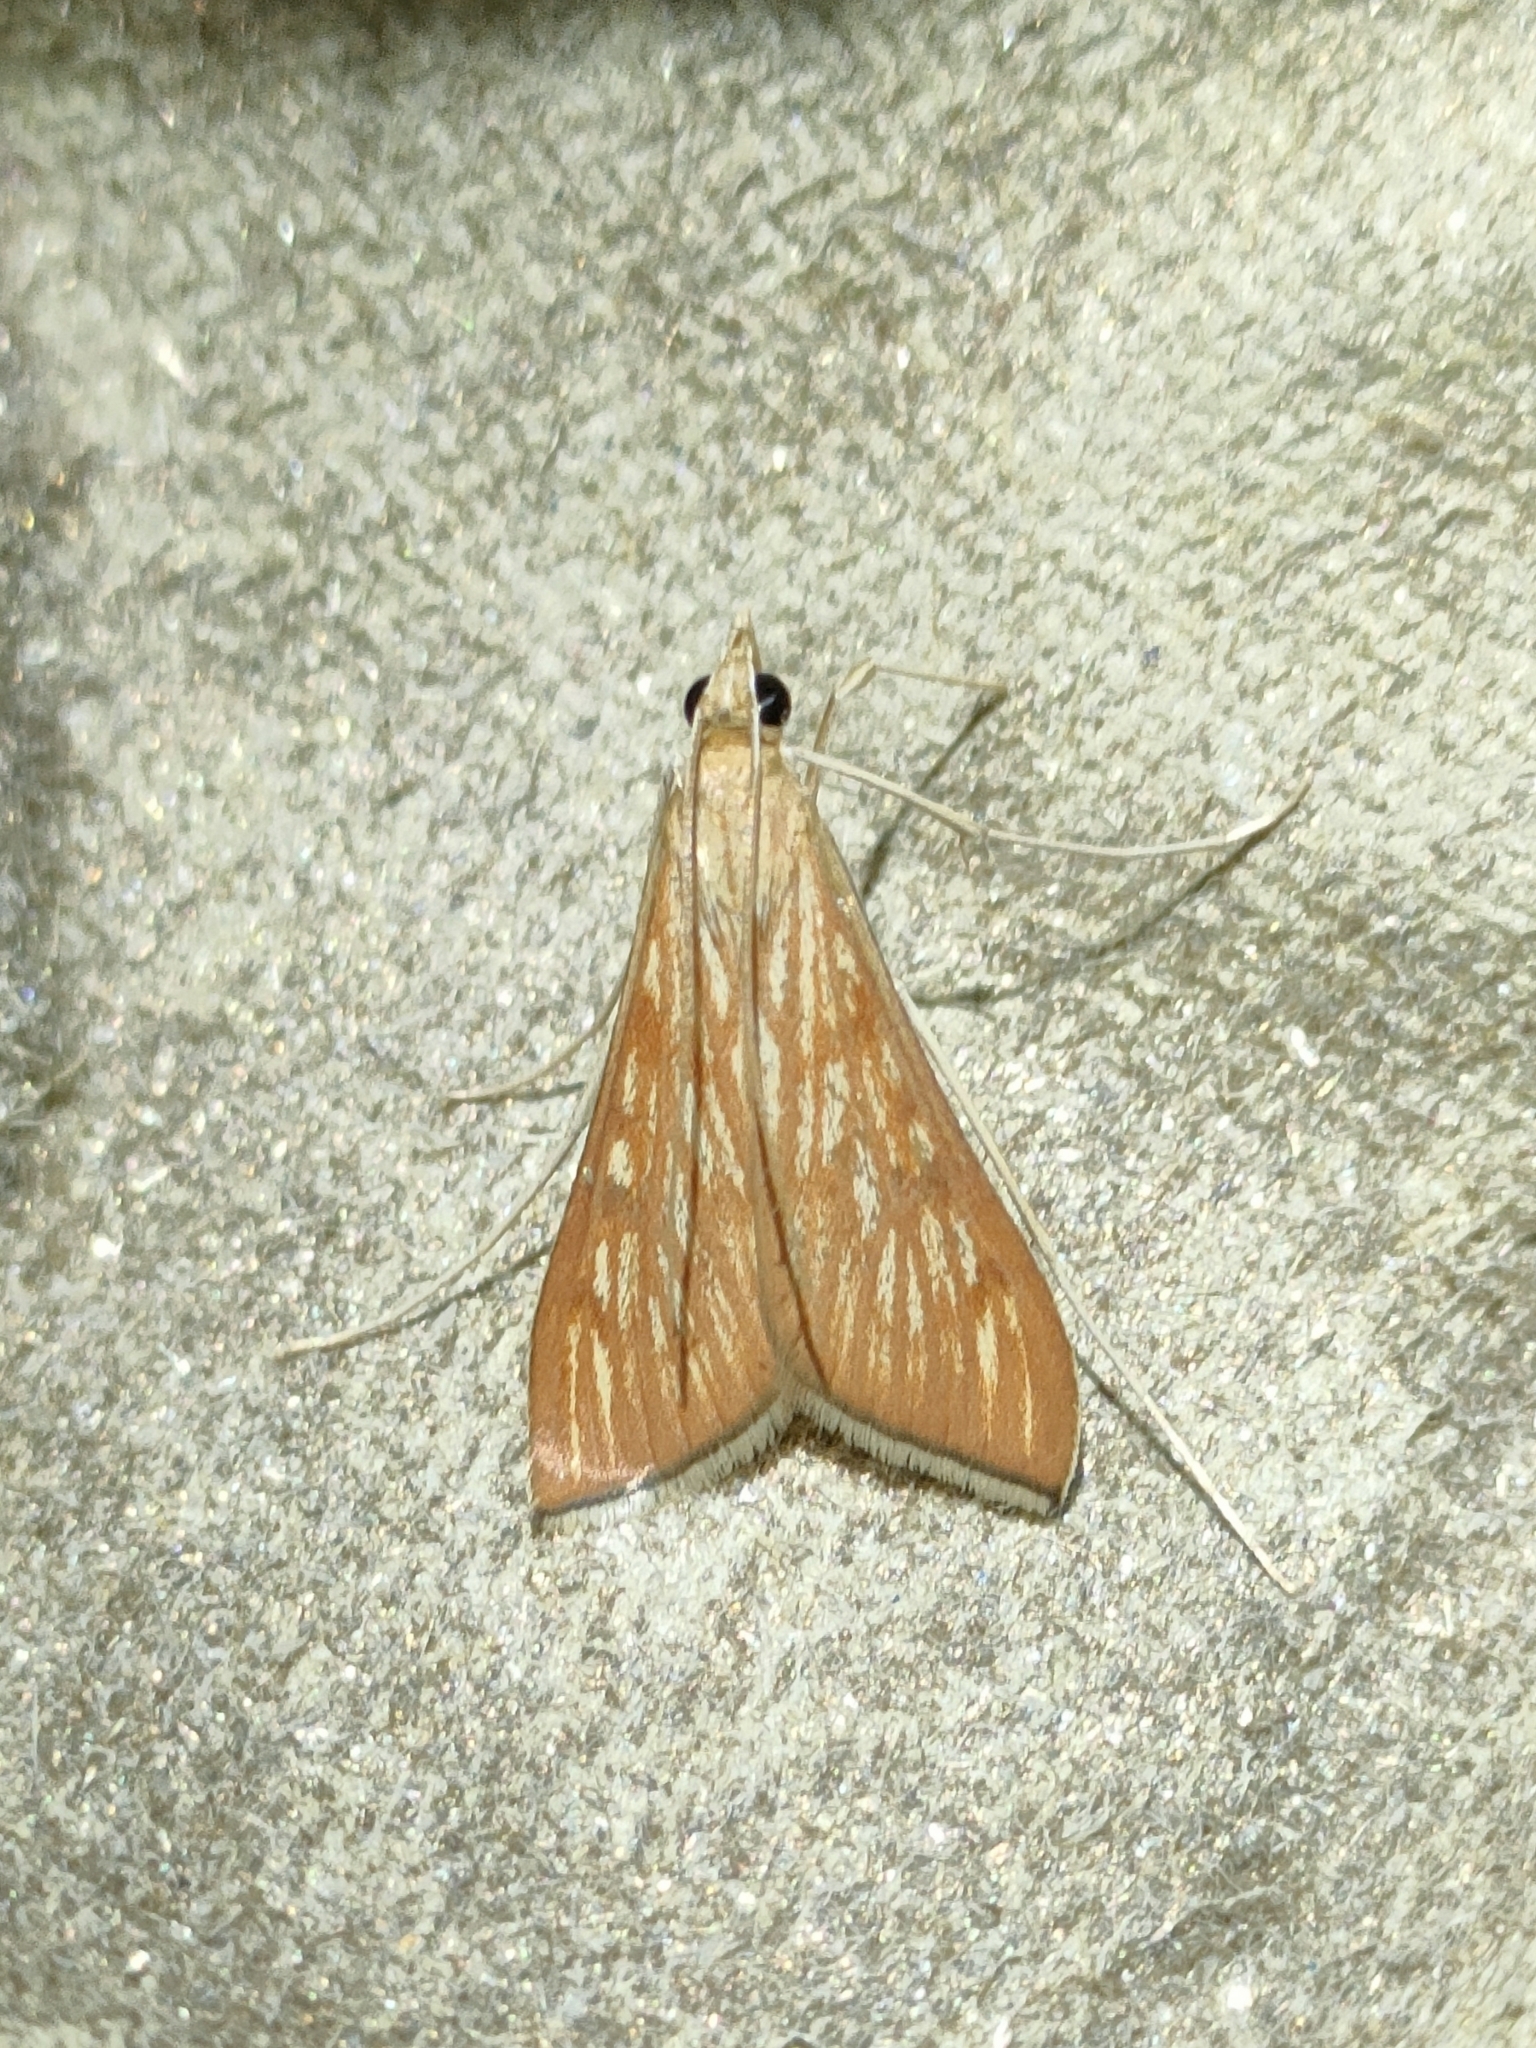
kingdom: Animalia
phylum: Arthropoda
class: Insecta
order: Lepidoptera
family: Crambidae
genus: Antigastra
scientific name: Antigastra catalaunalis
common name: Spanish dot
